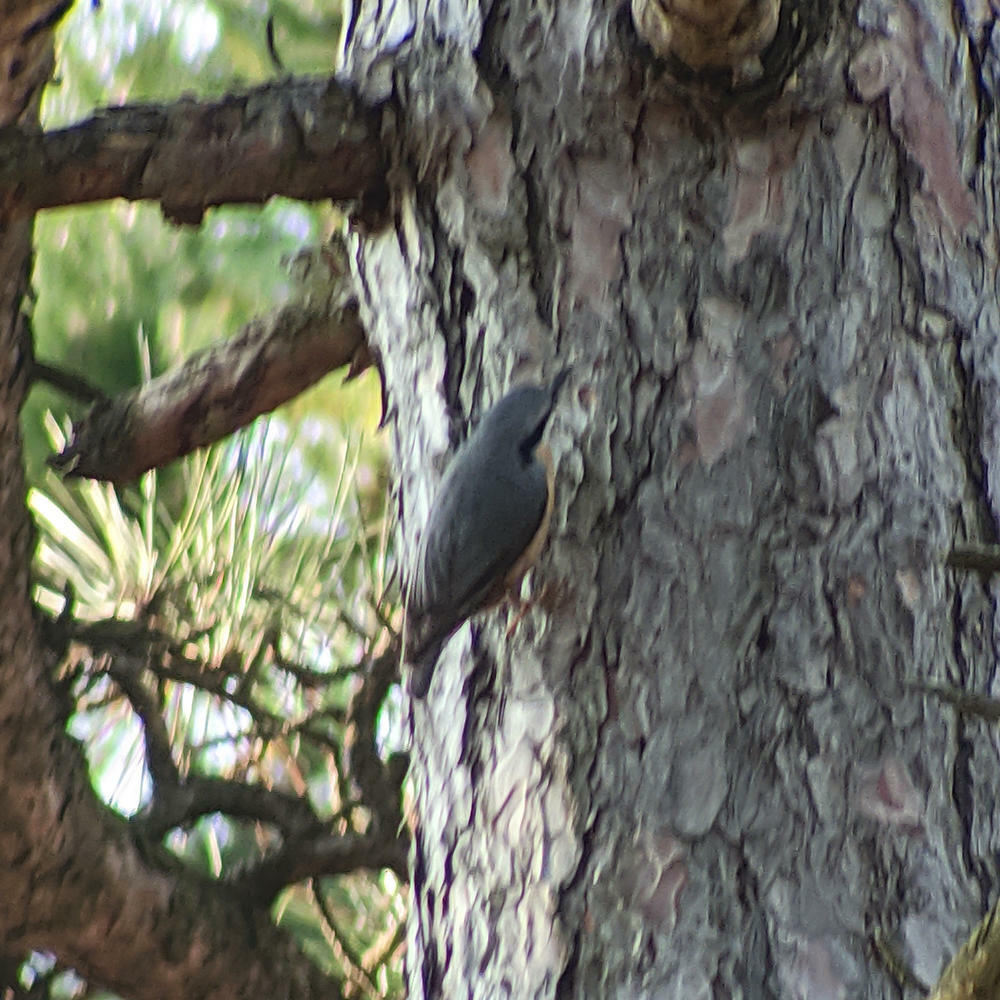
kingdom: Animalia
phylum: Chordata
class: Aves
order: Passeriformes
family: Sittidae
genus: Sitta
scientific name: Sitta europaea
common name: Eurasian nuthatch
